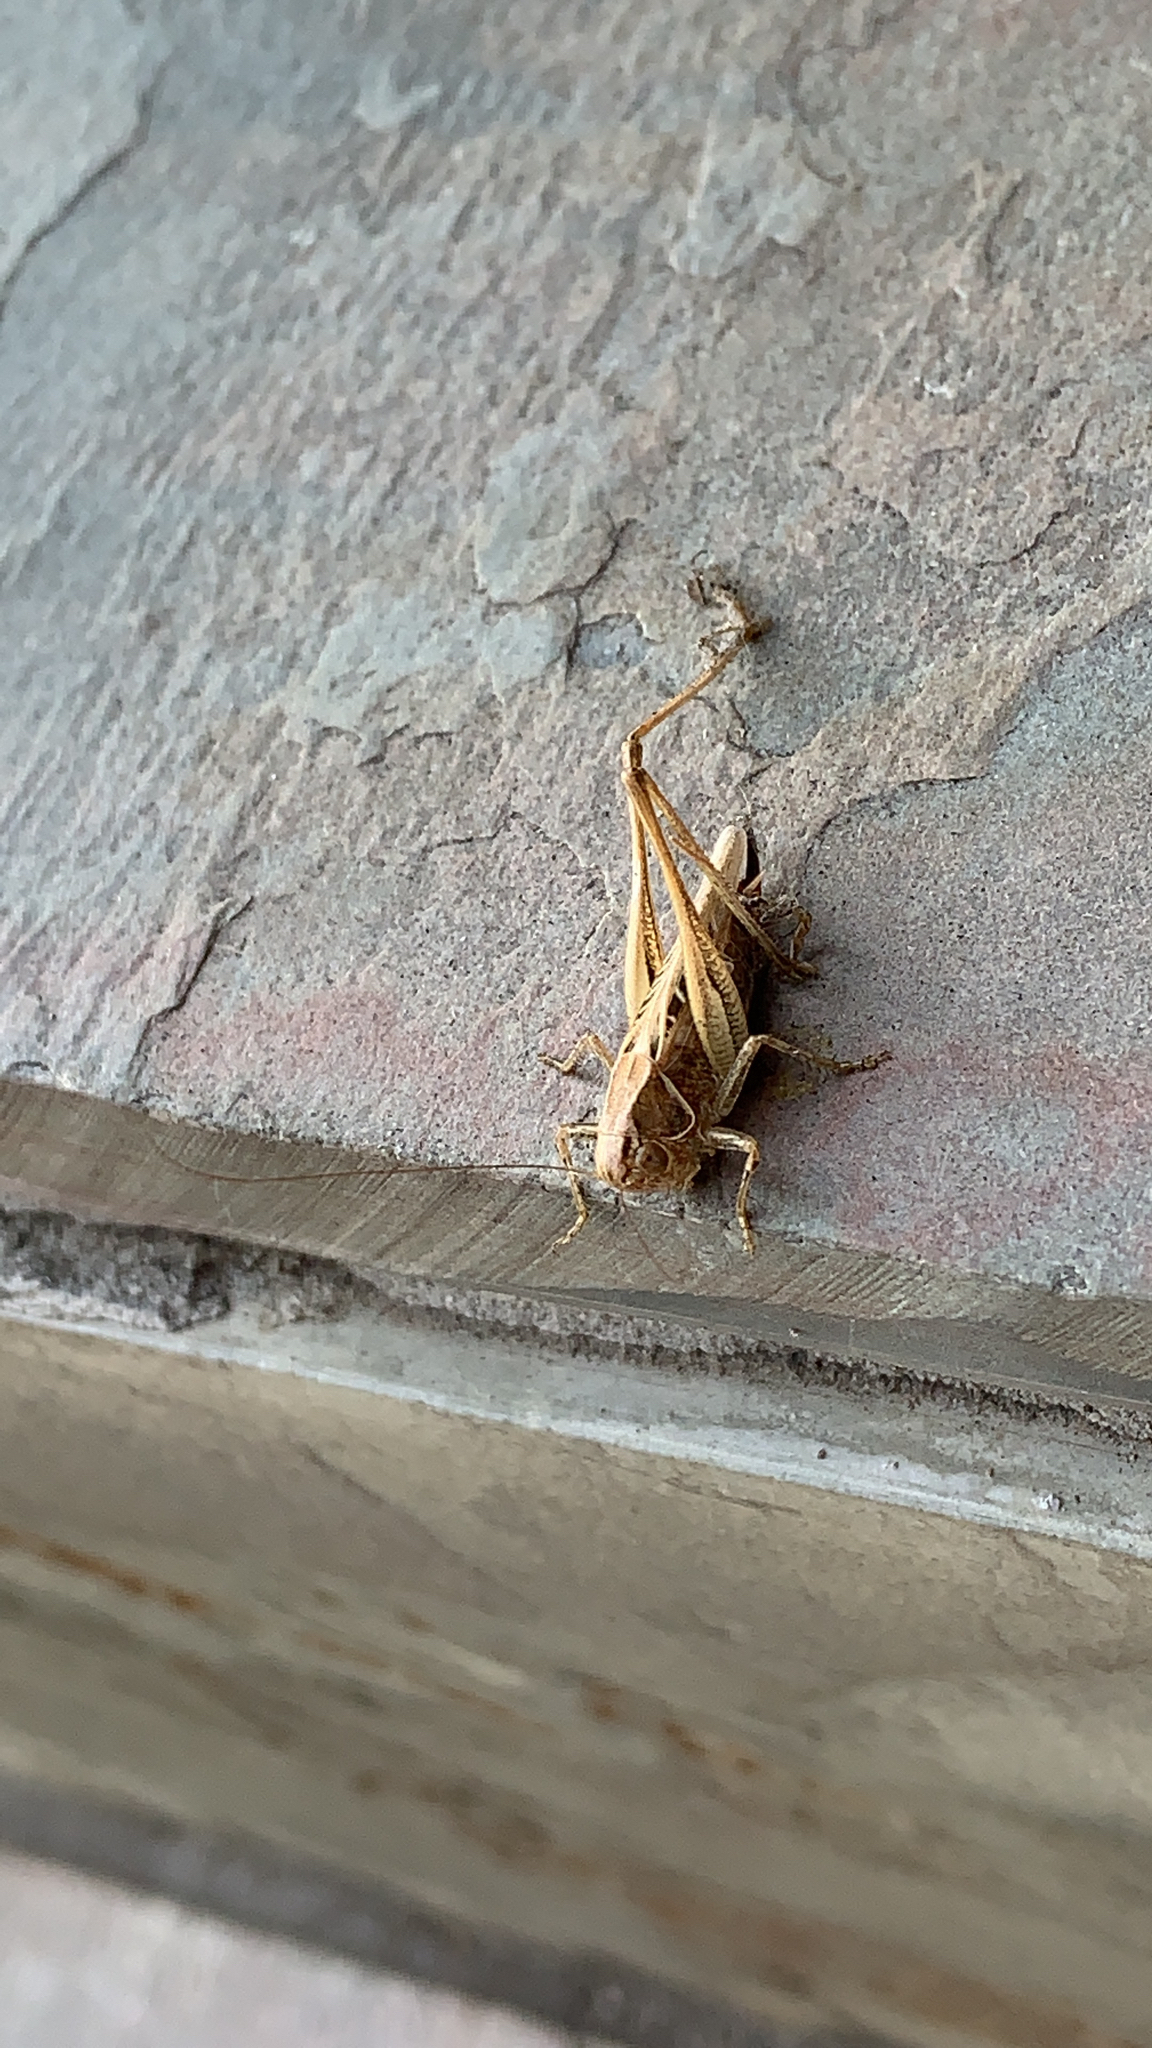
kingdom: Animalia
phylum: Arthropoda
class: Insecta
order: Orthoptera
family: Tettigoniidae
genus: Tessellana
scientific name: Tessellana tessellata
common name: Grasshopper
